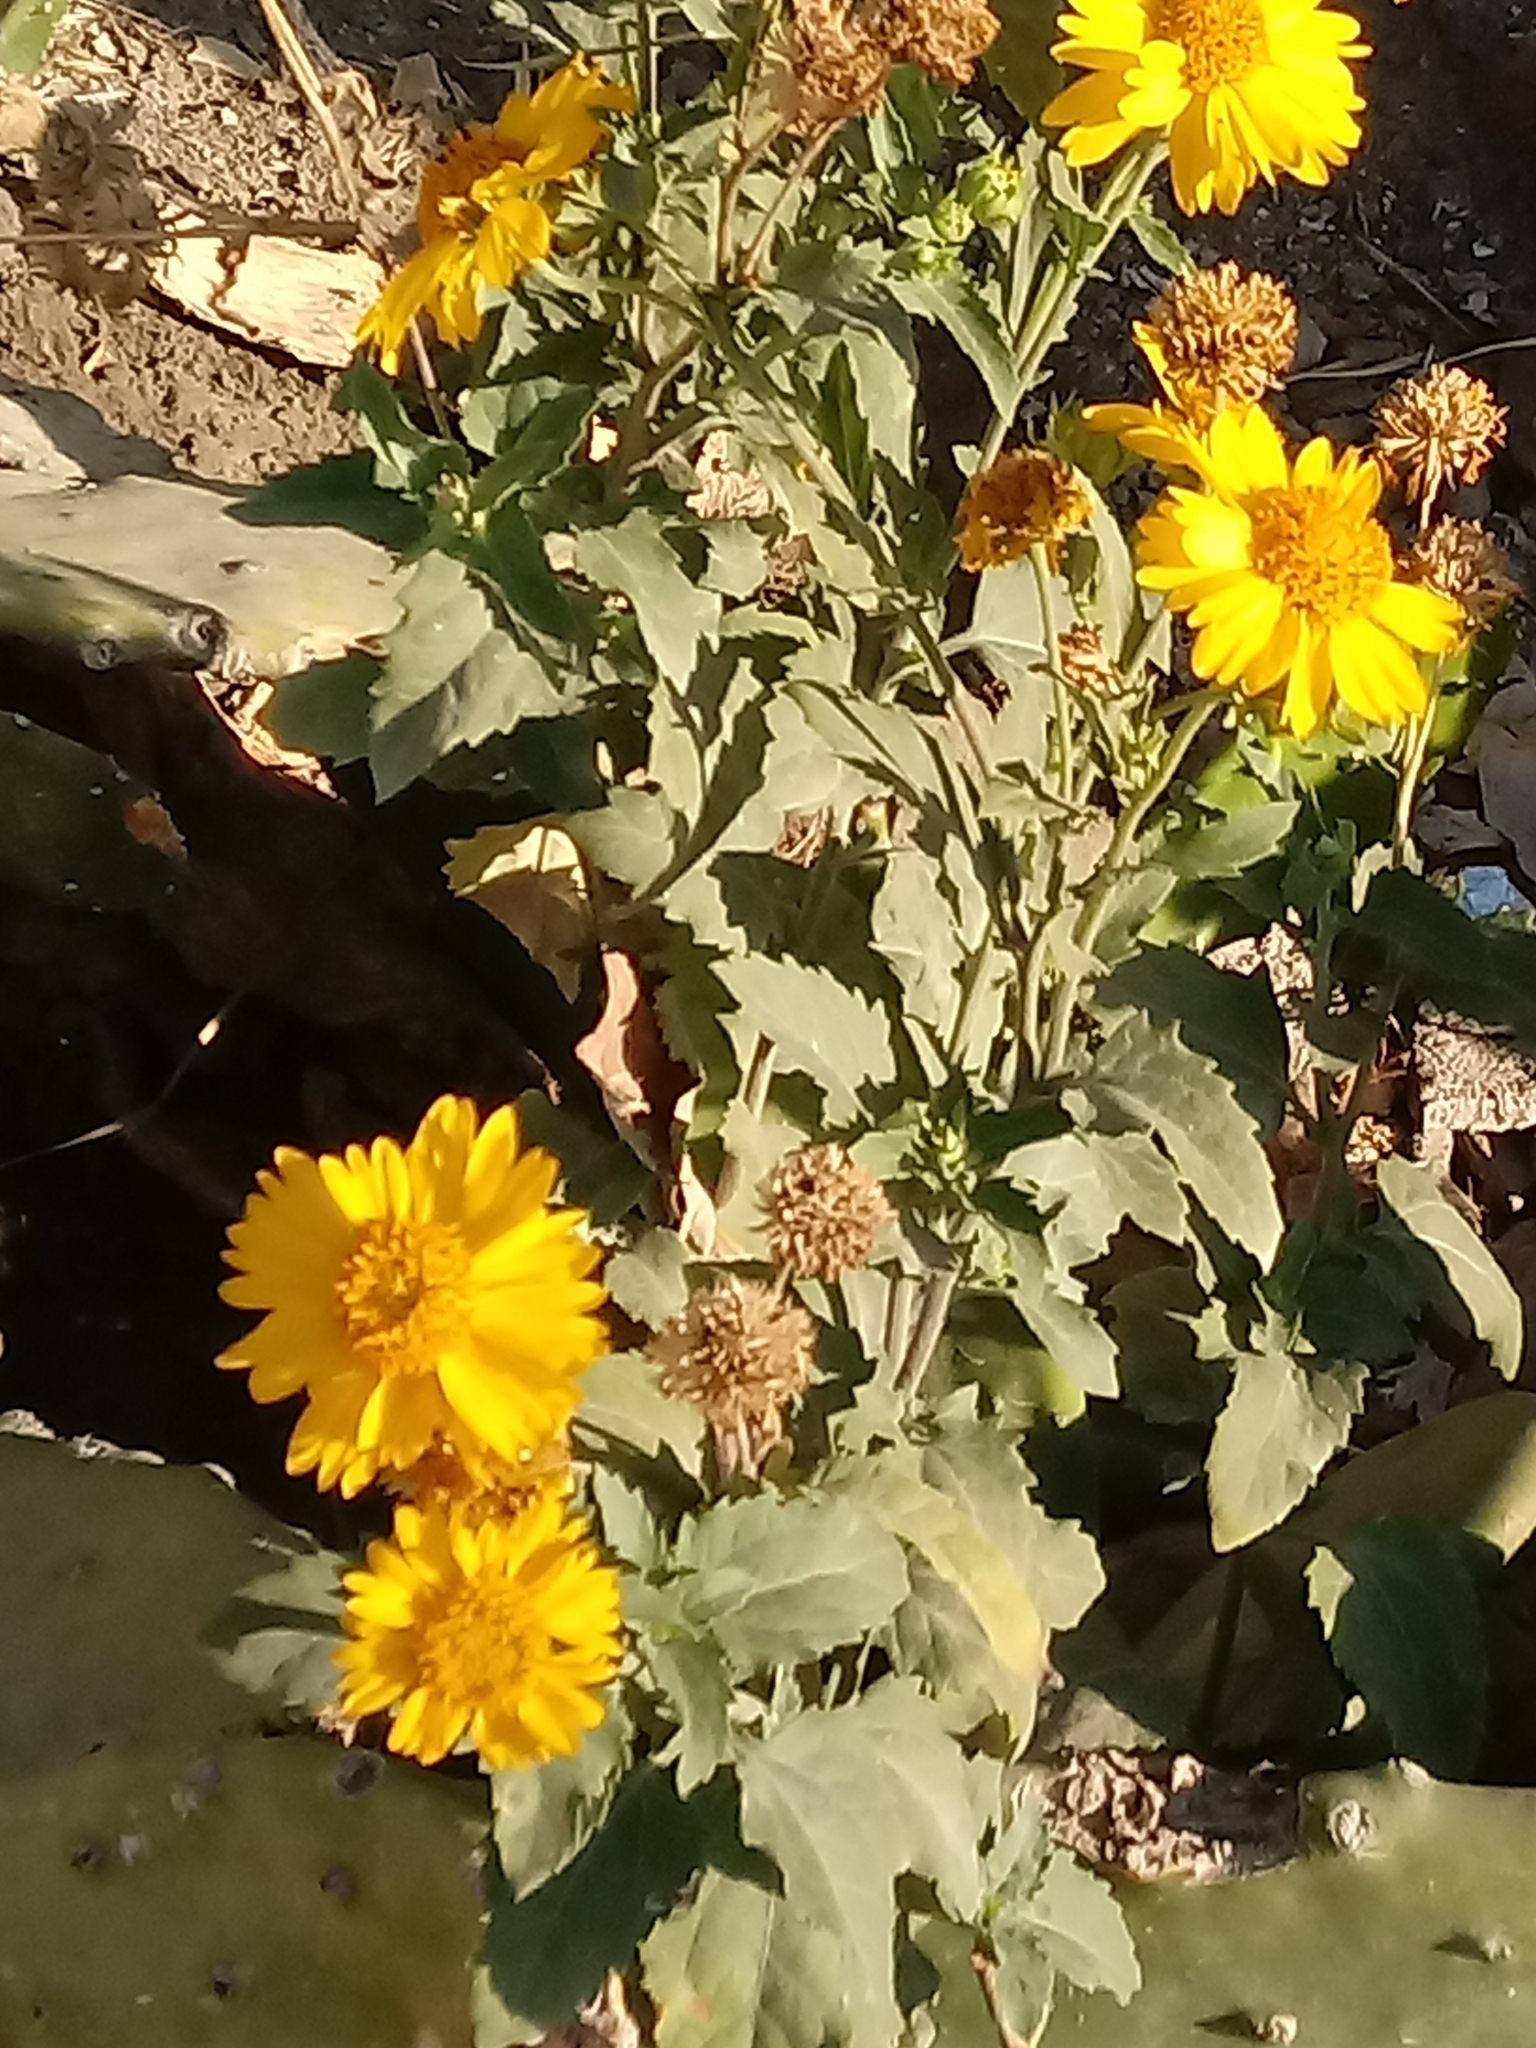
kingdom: Plantae
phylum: Tracheophyta
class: Magnoliopsida
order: Asterales
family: Asteraceae
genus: Verbesina
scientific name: Verbesina encelioides
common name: Golden crownbeard
